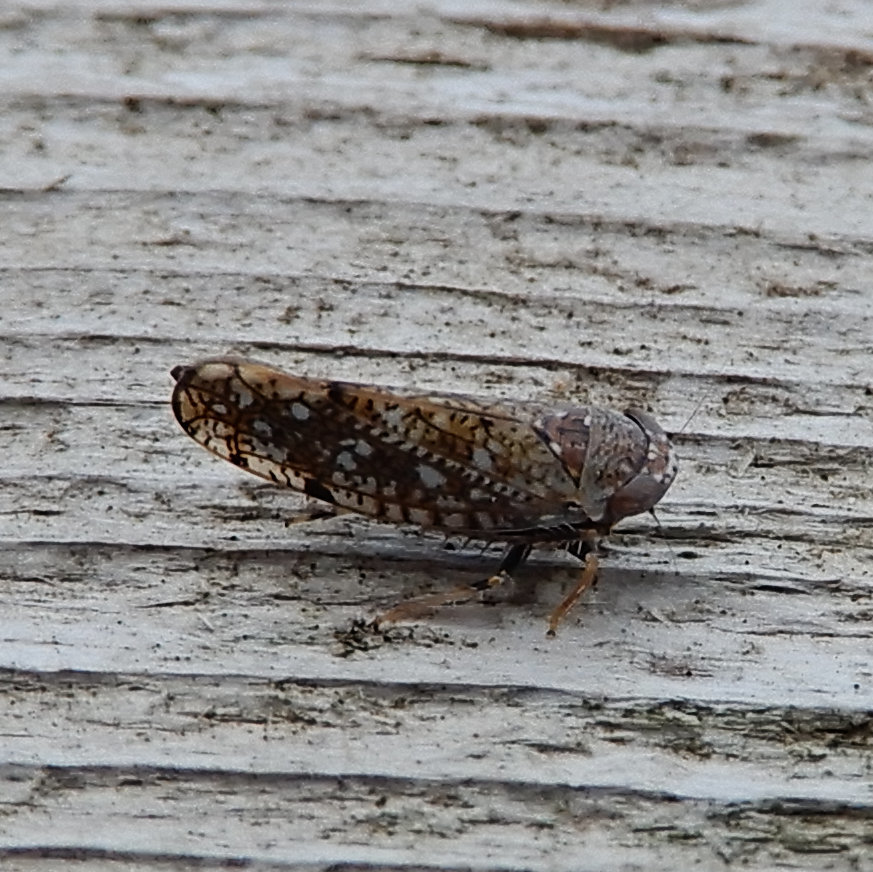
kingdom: Animalia
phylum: Arthropoda
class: Insecta
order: Hemiptera
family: Cicadellidae
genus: Orientus
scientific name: Orientus ishidae
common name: Japanese leafhopper
